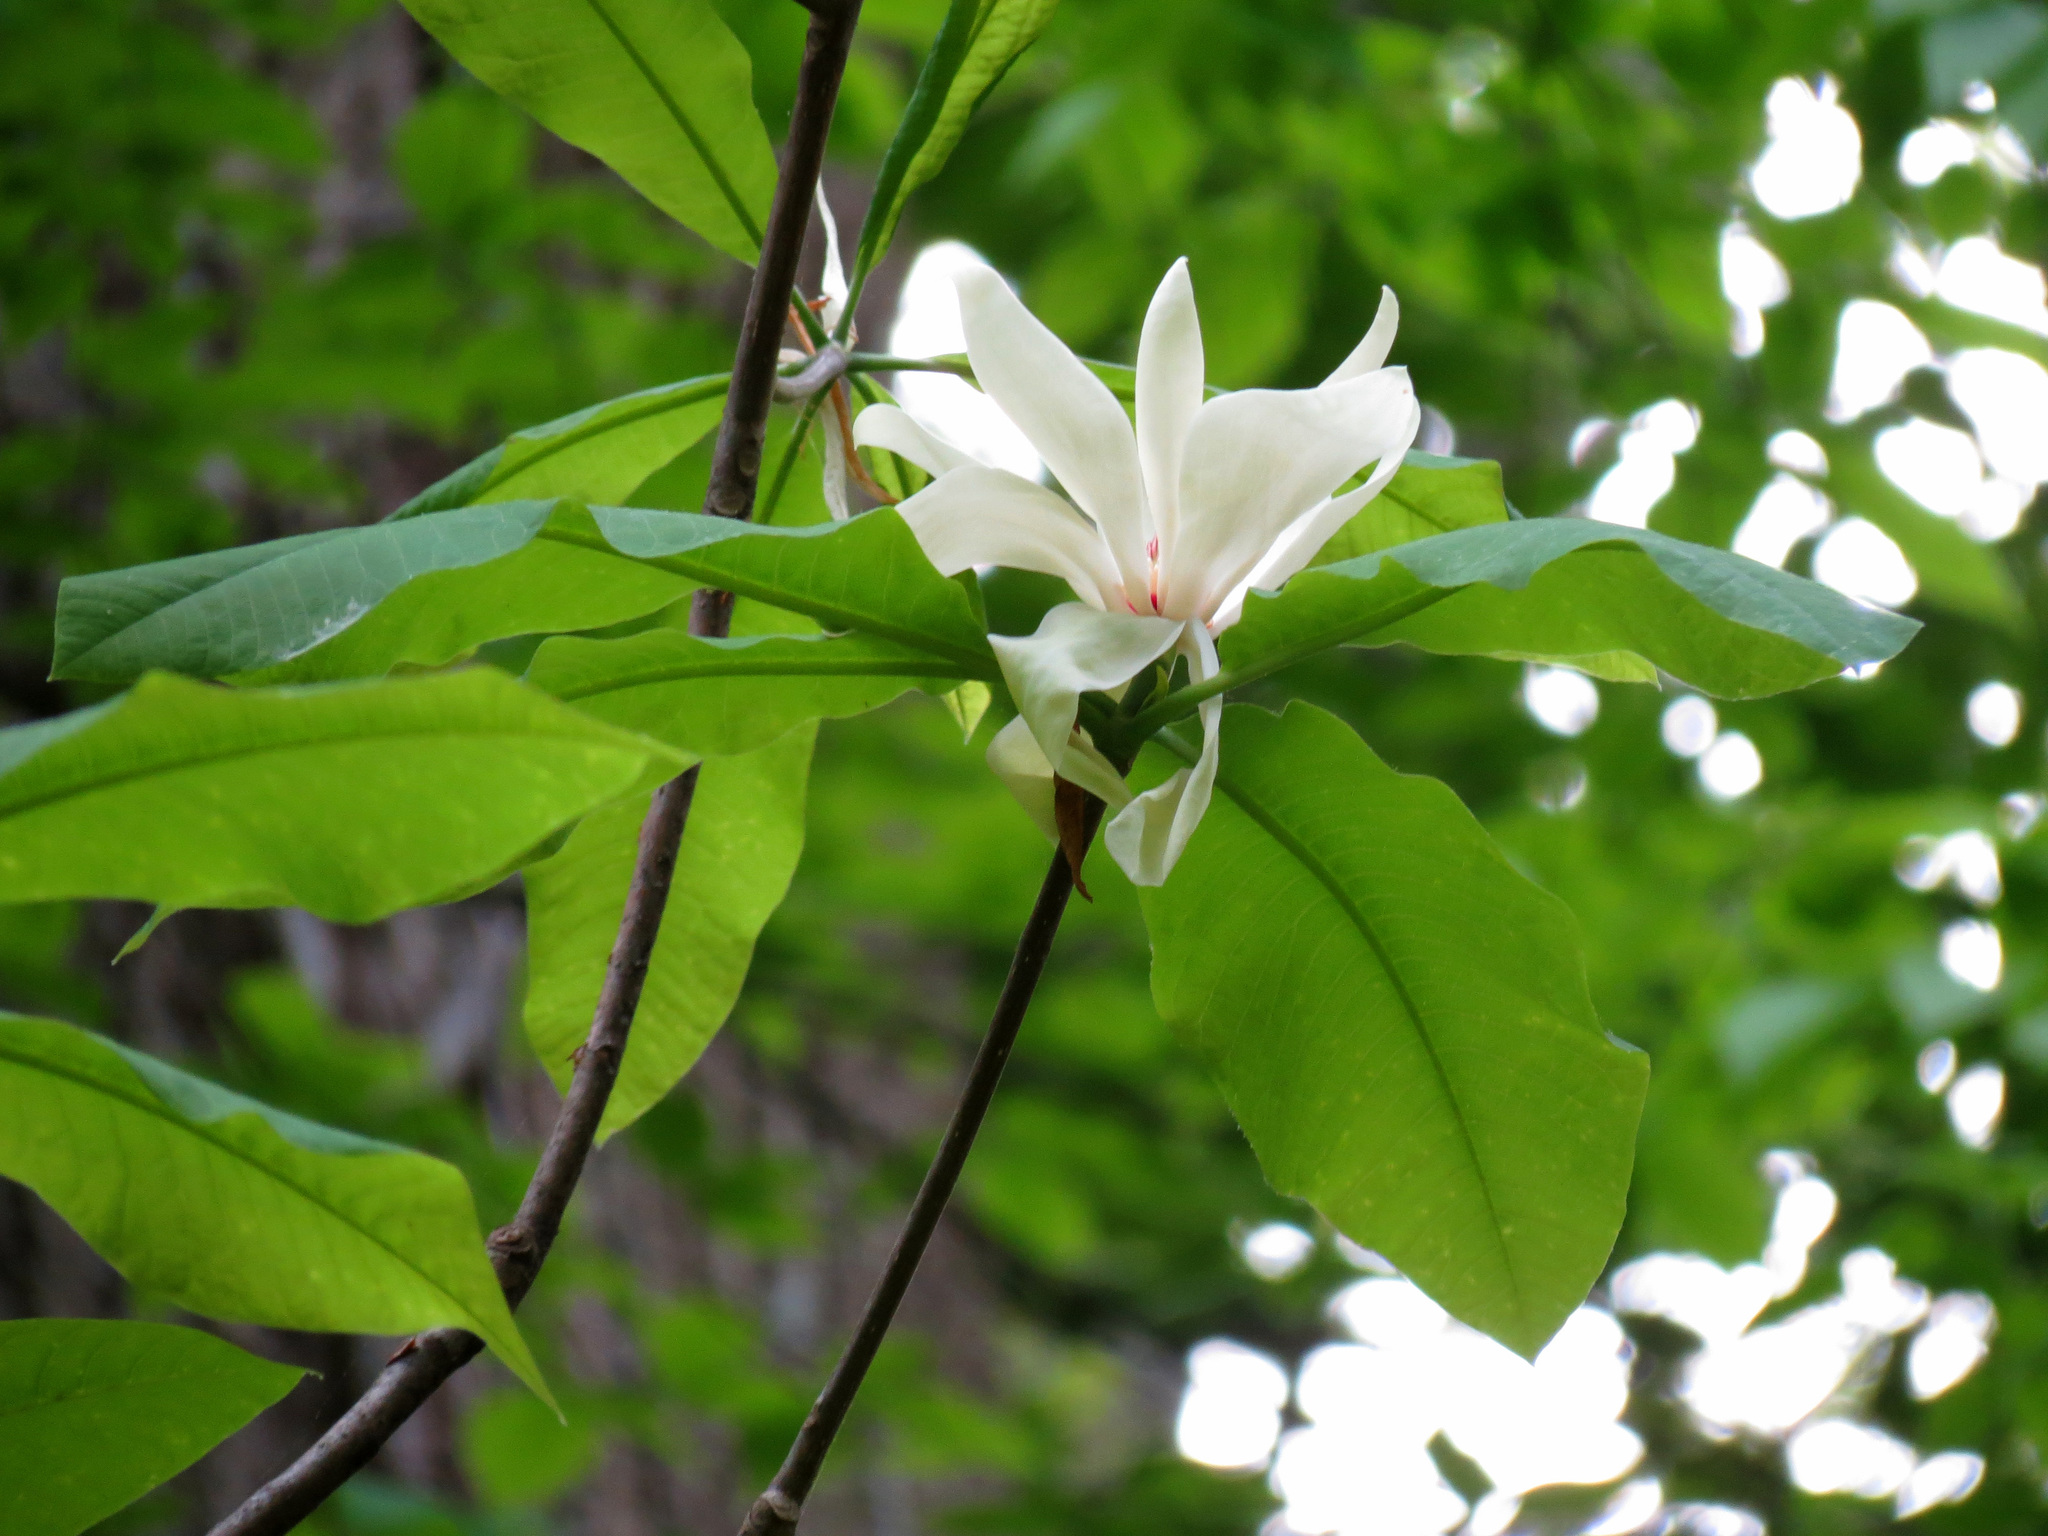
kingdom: Plantae
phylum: Tracheophyta
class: Magnoliopsida
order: Magnoliales
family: Magnoliaceae
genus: Magnolia
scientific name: Magnolia tripetala
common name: Umbrella magnolia
